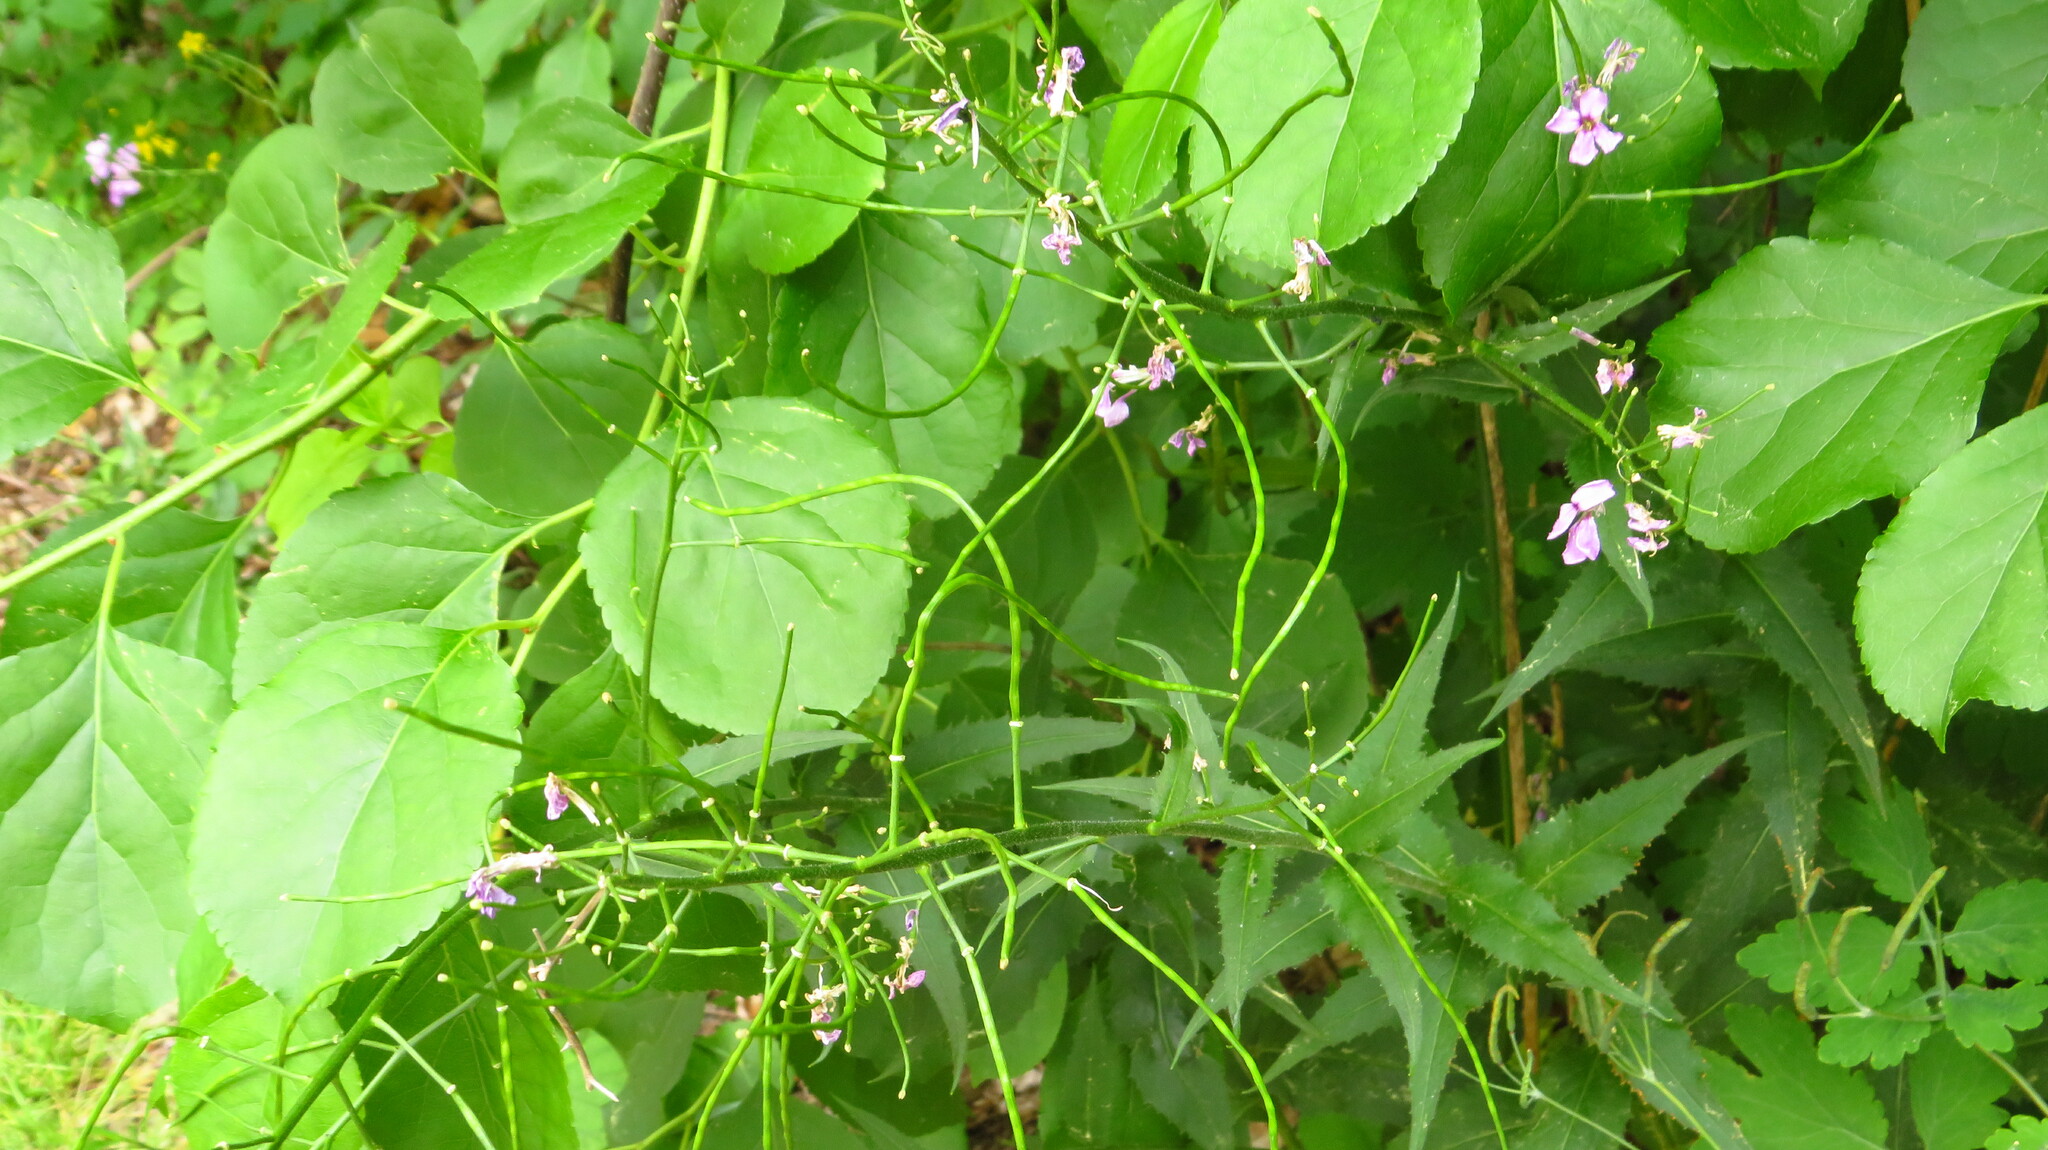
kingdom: Plantae
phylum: Tracheophyta
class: Magnoliopsida
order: Brassicales
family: Brassicaceae
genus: Hesperis
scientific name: Hesperis matronalis
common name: Dame's-violet
